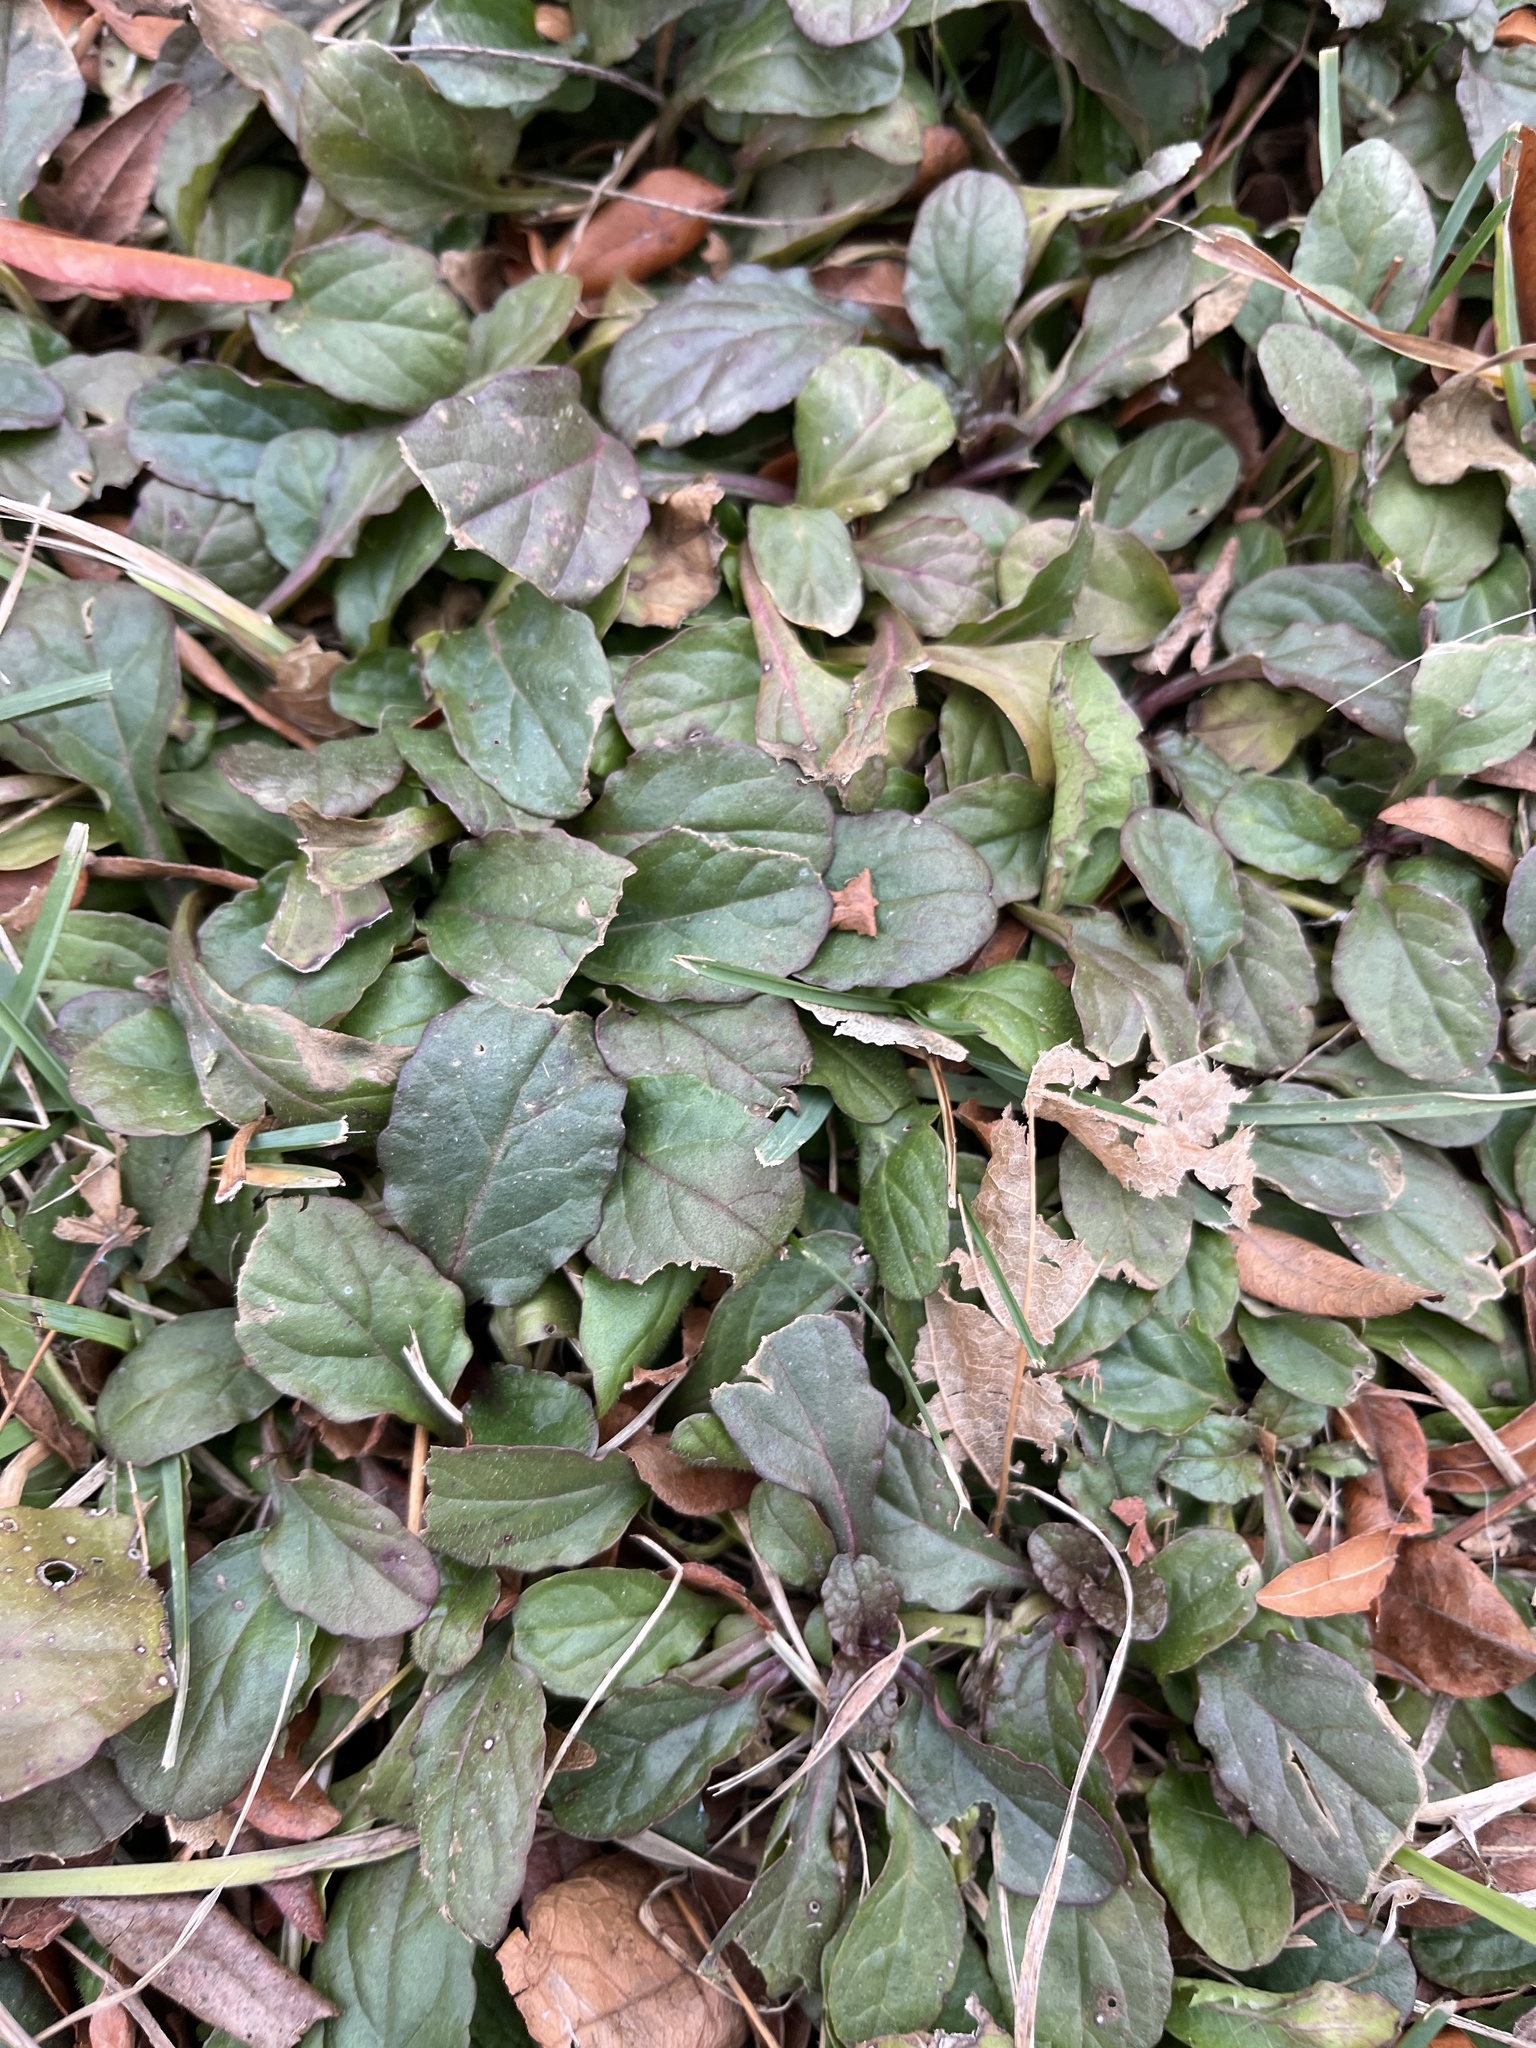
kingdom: Plantae
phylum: Tracheophyta
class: Magnoliopsida
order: Lamiales
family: Lamiaceae
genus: Ajuga
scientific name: Ajuga reptans
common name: Bugle
